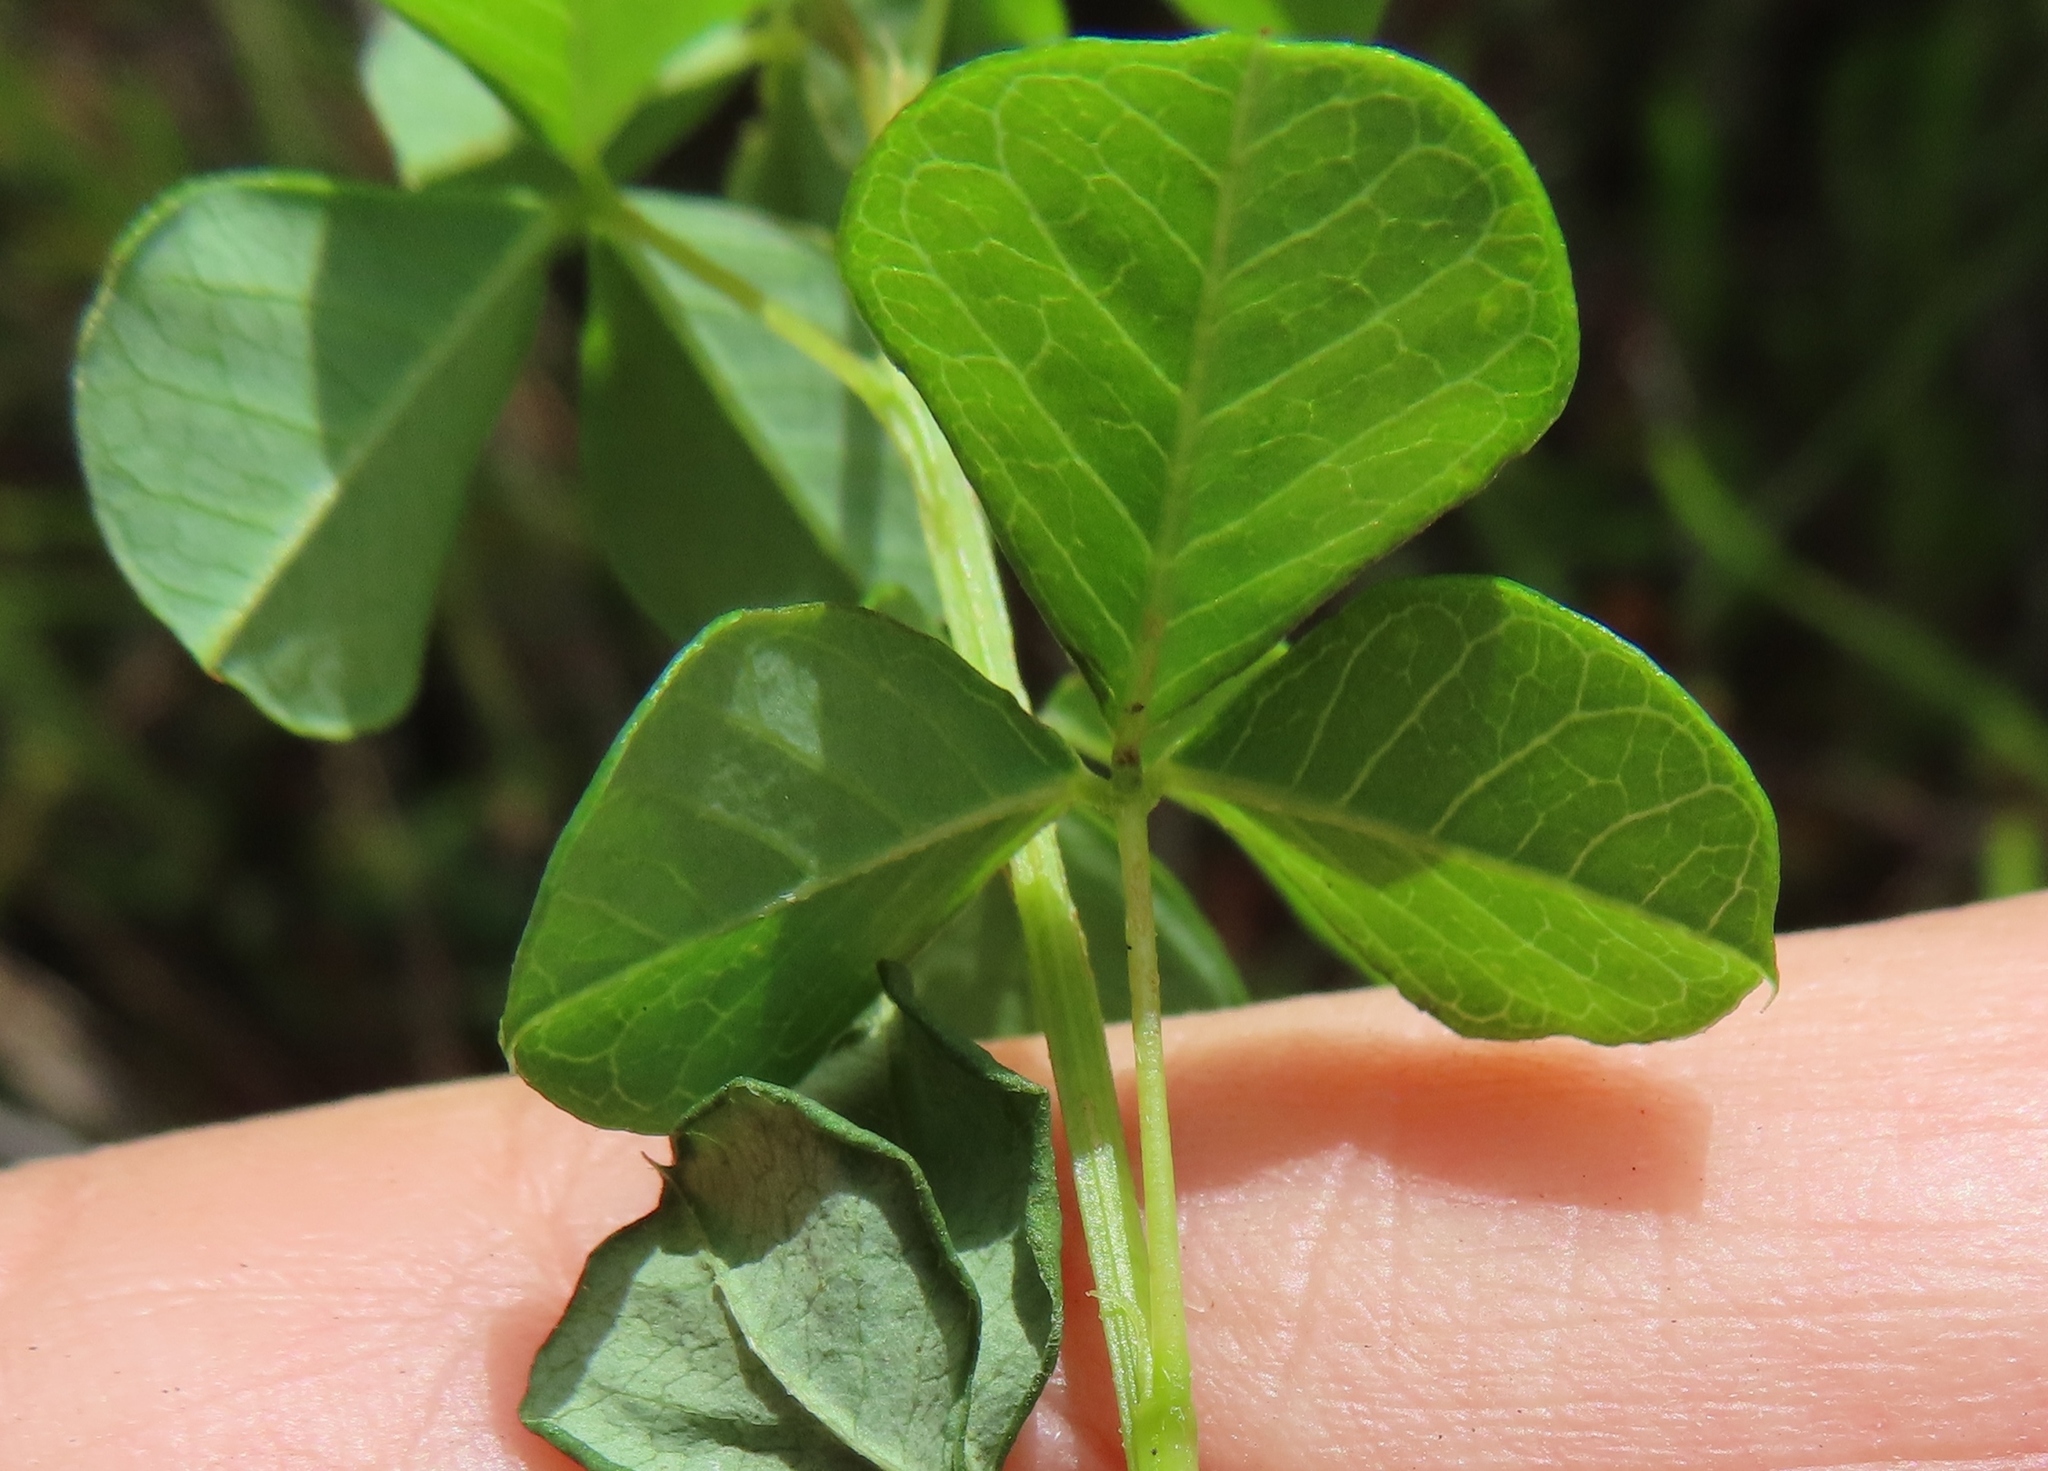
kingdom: Plantae
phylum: Tracheophyta
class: Magnoliopsida
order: Fabales
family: Fabaceae
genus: Hypocalyptus
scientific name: Hypocalyptus oxalidifolius
